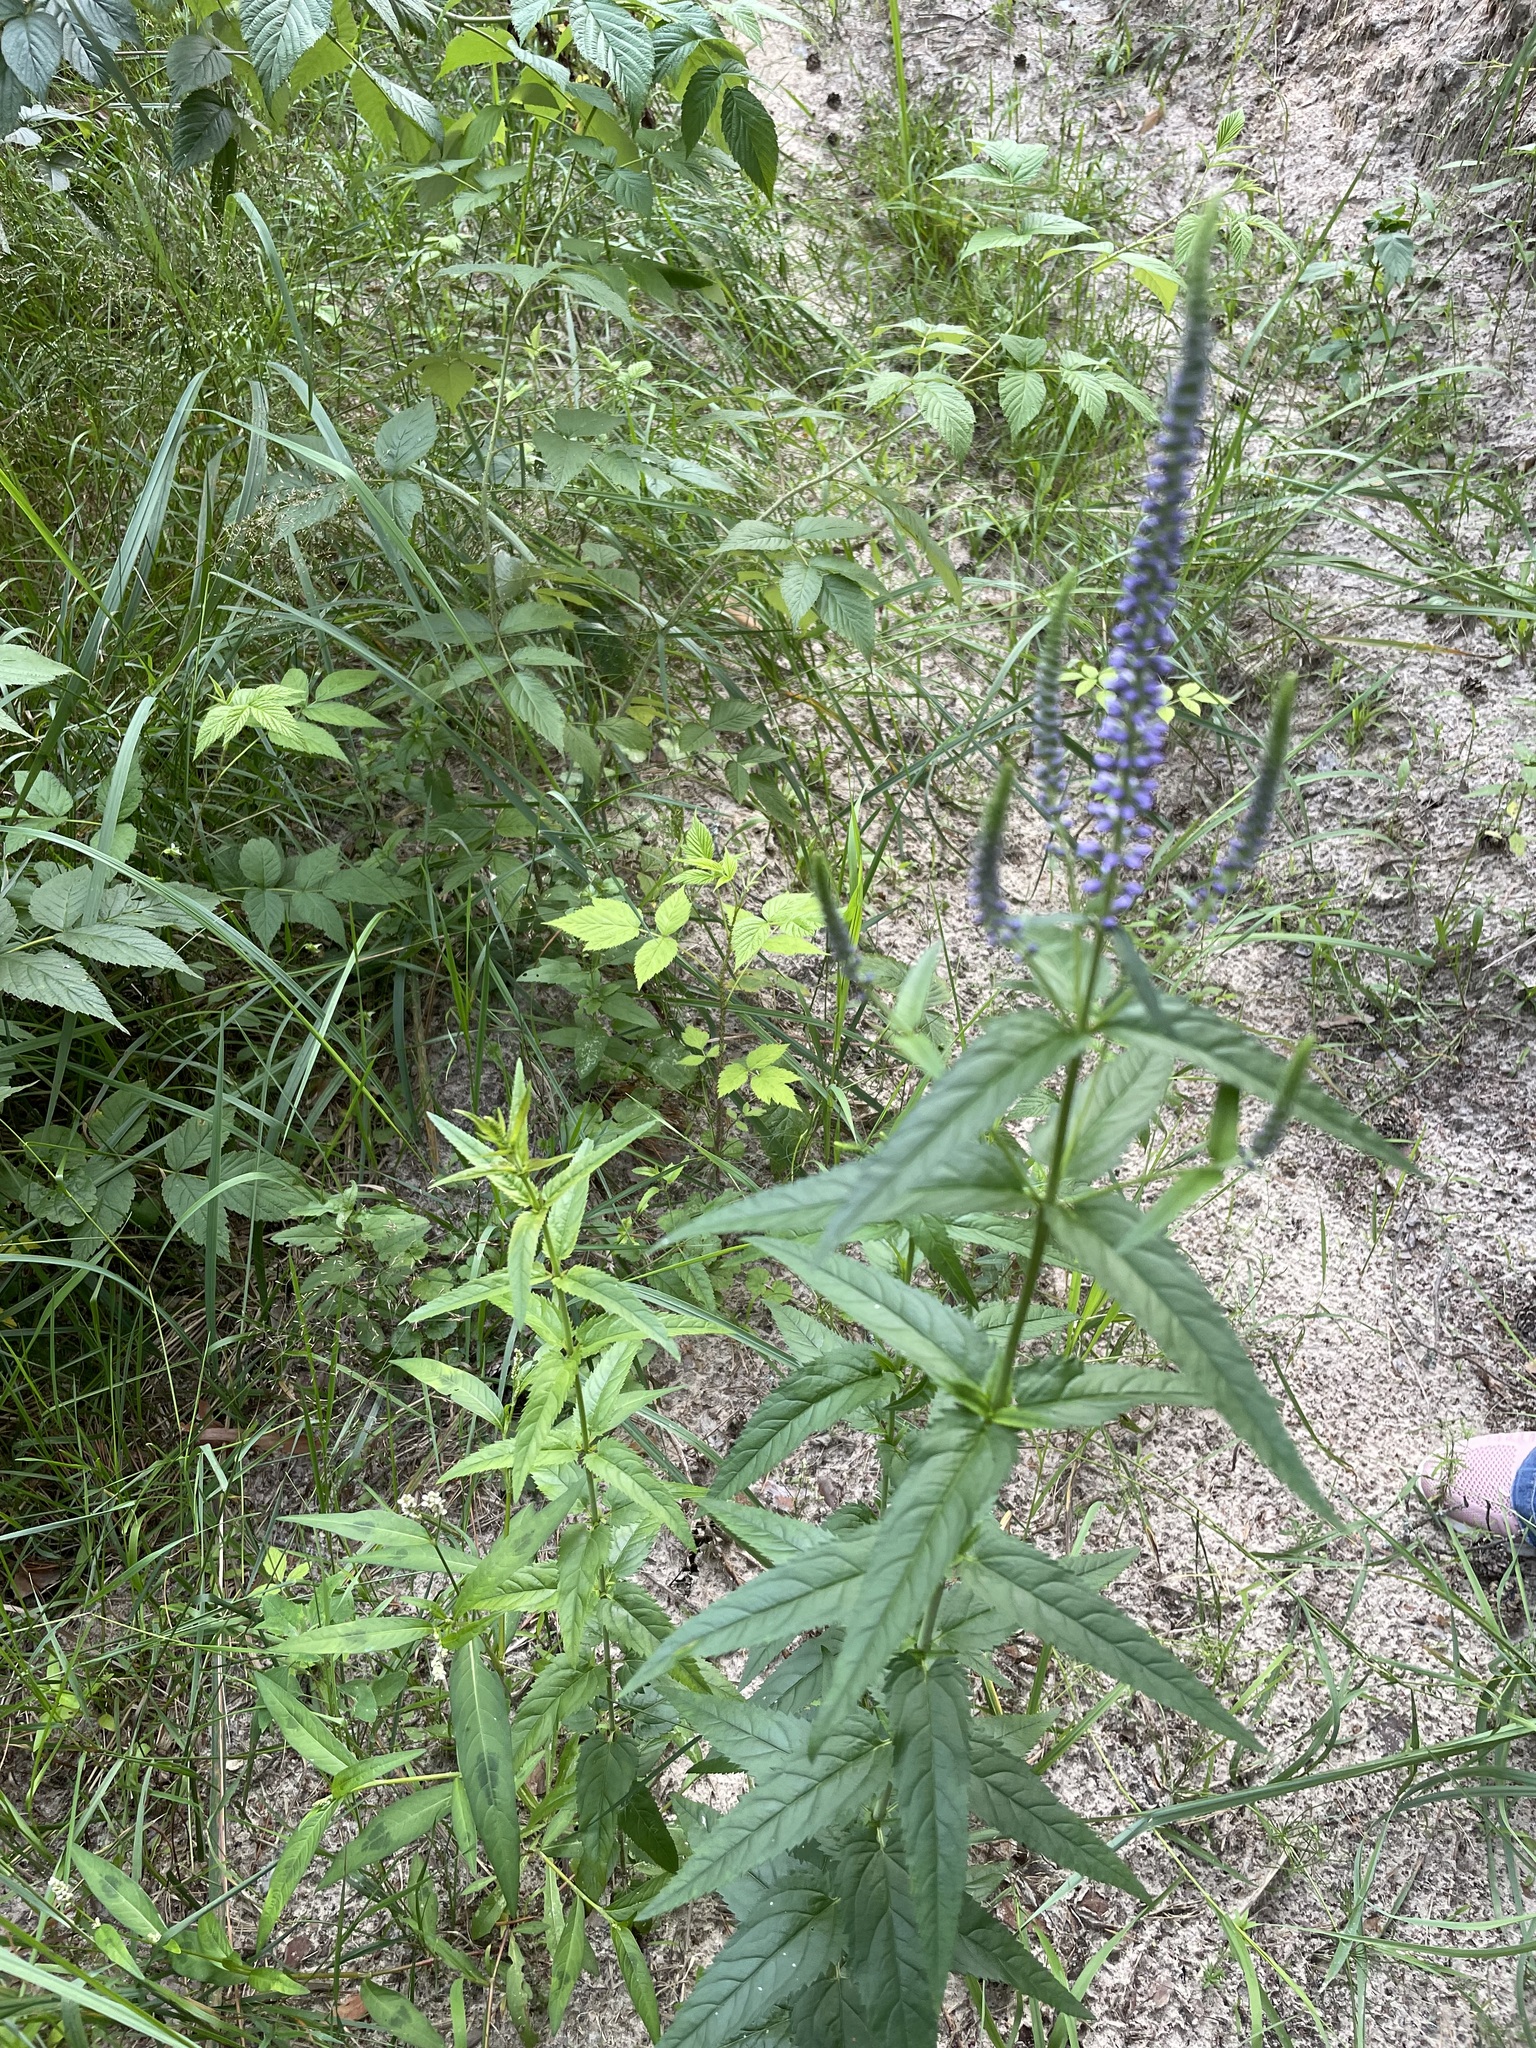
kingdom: Plantae
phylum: Tracheophyta
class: Magnoliopsida
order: Lamiales
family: Plantaginaceae
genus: Veronica
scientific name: Veronica longifolia
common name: Garden speedwell
